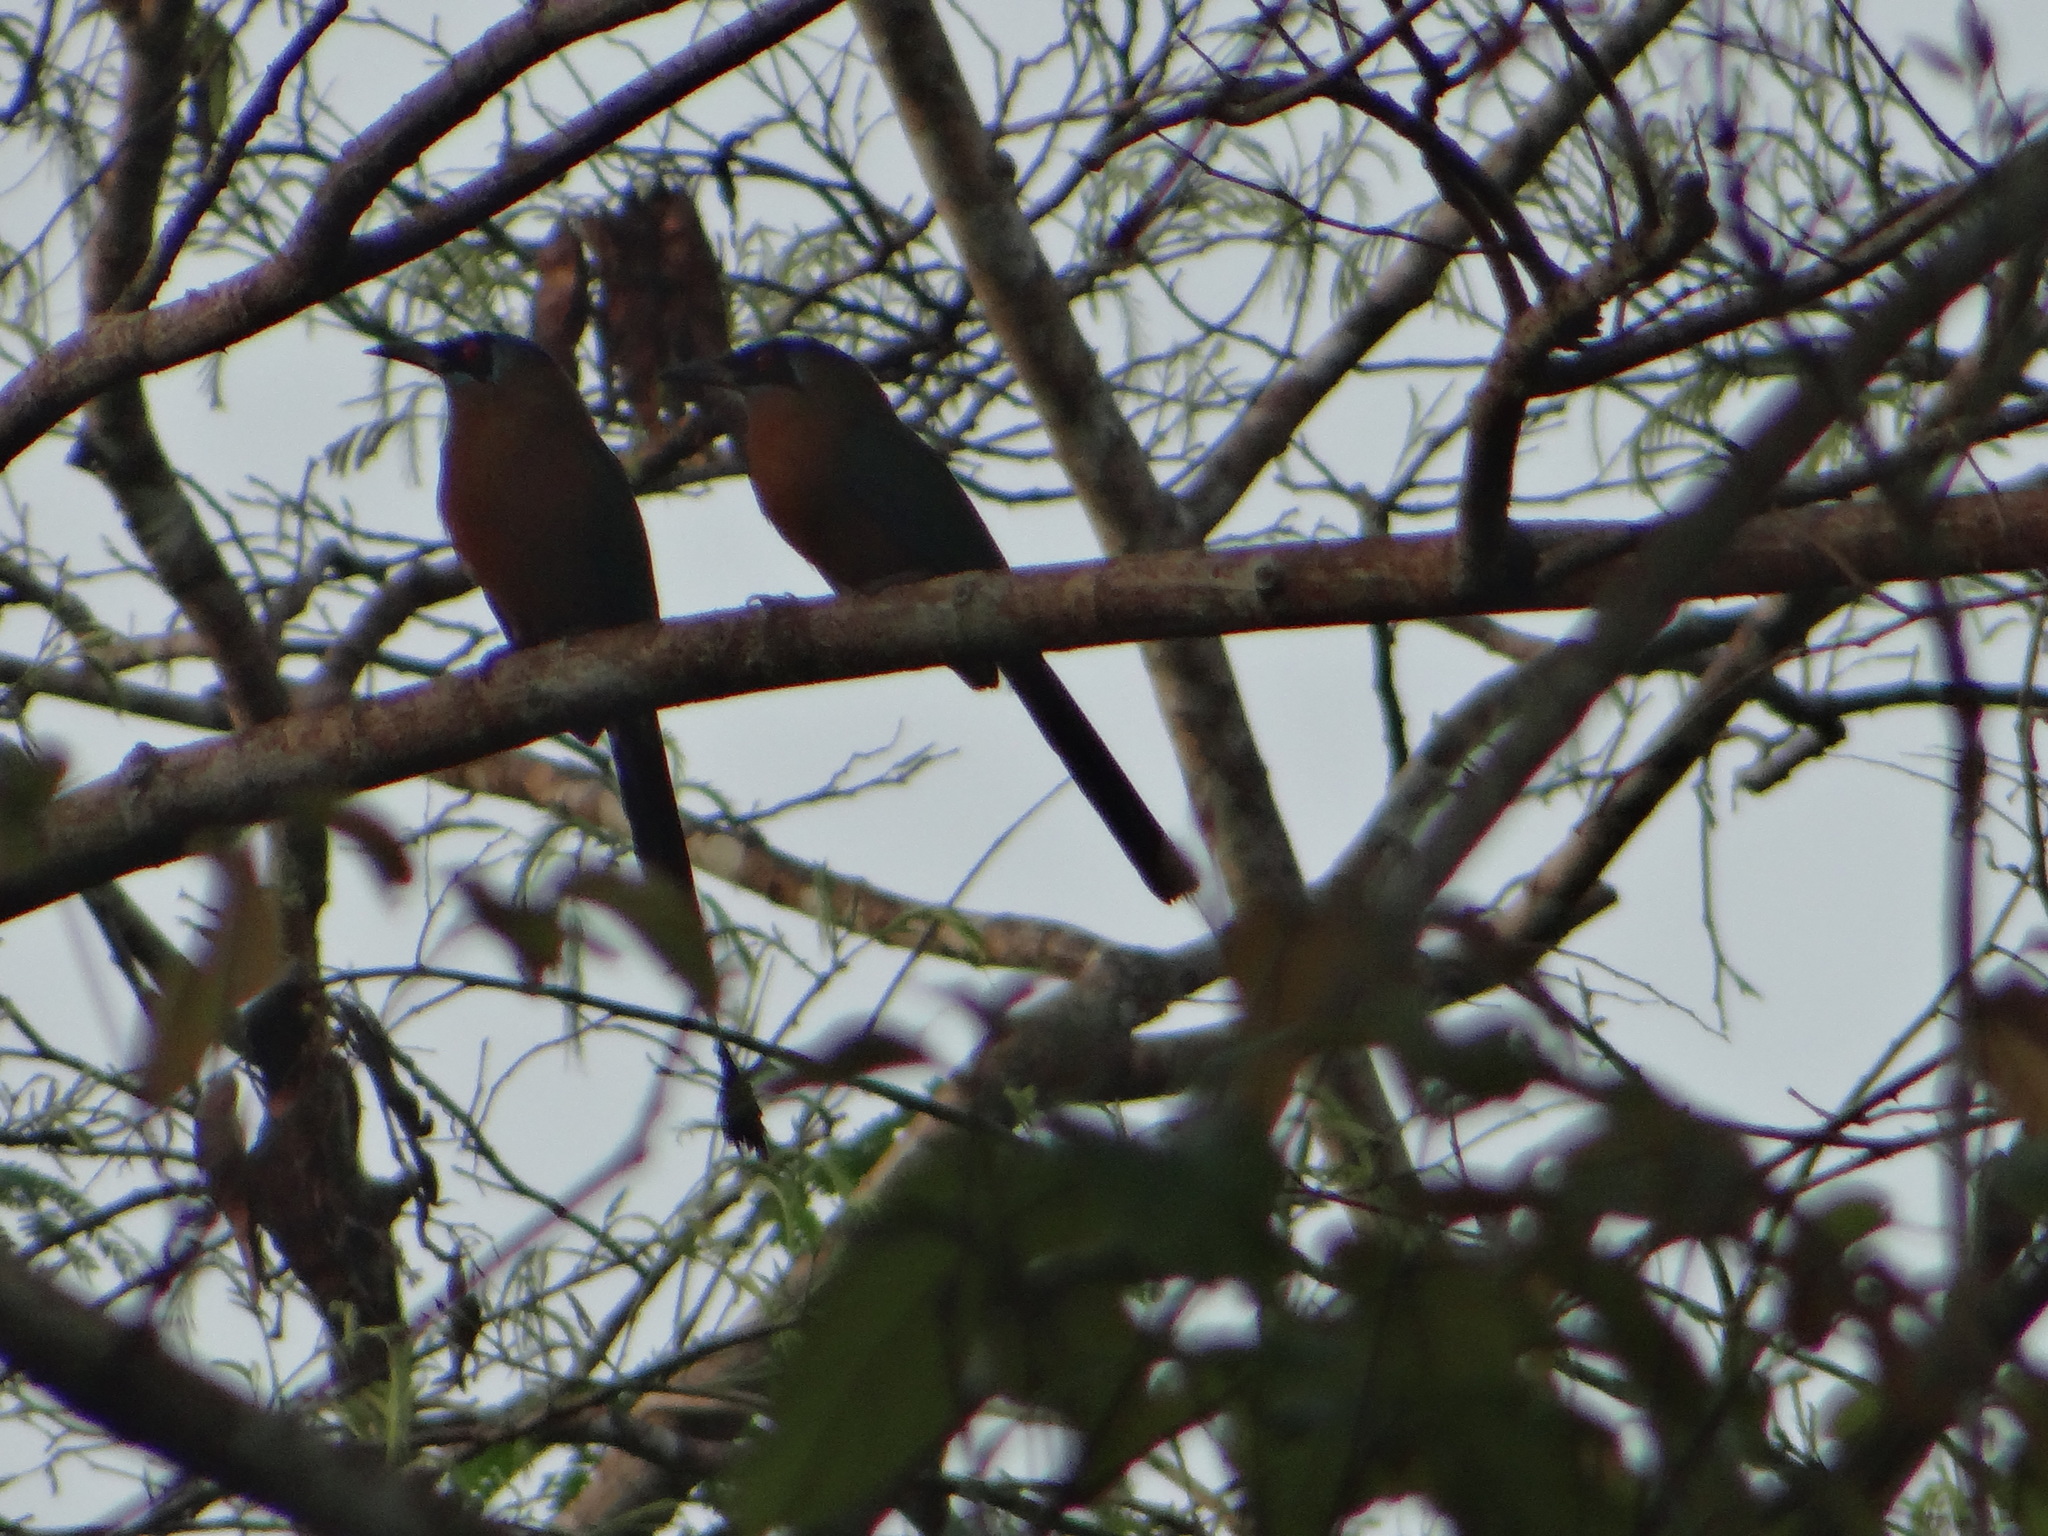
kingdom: Animalia
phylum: Chordata
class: Aves
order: Coraciiformes
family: Momotidae
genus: Momotus
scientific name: Momotus momota
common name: Amazonian motmot
